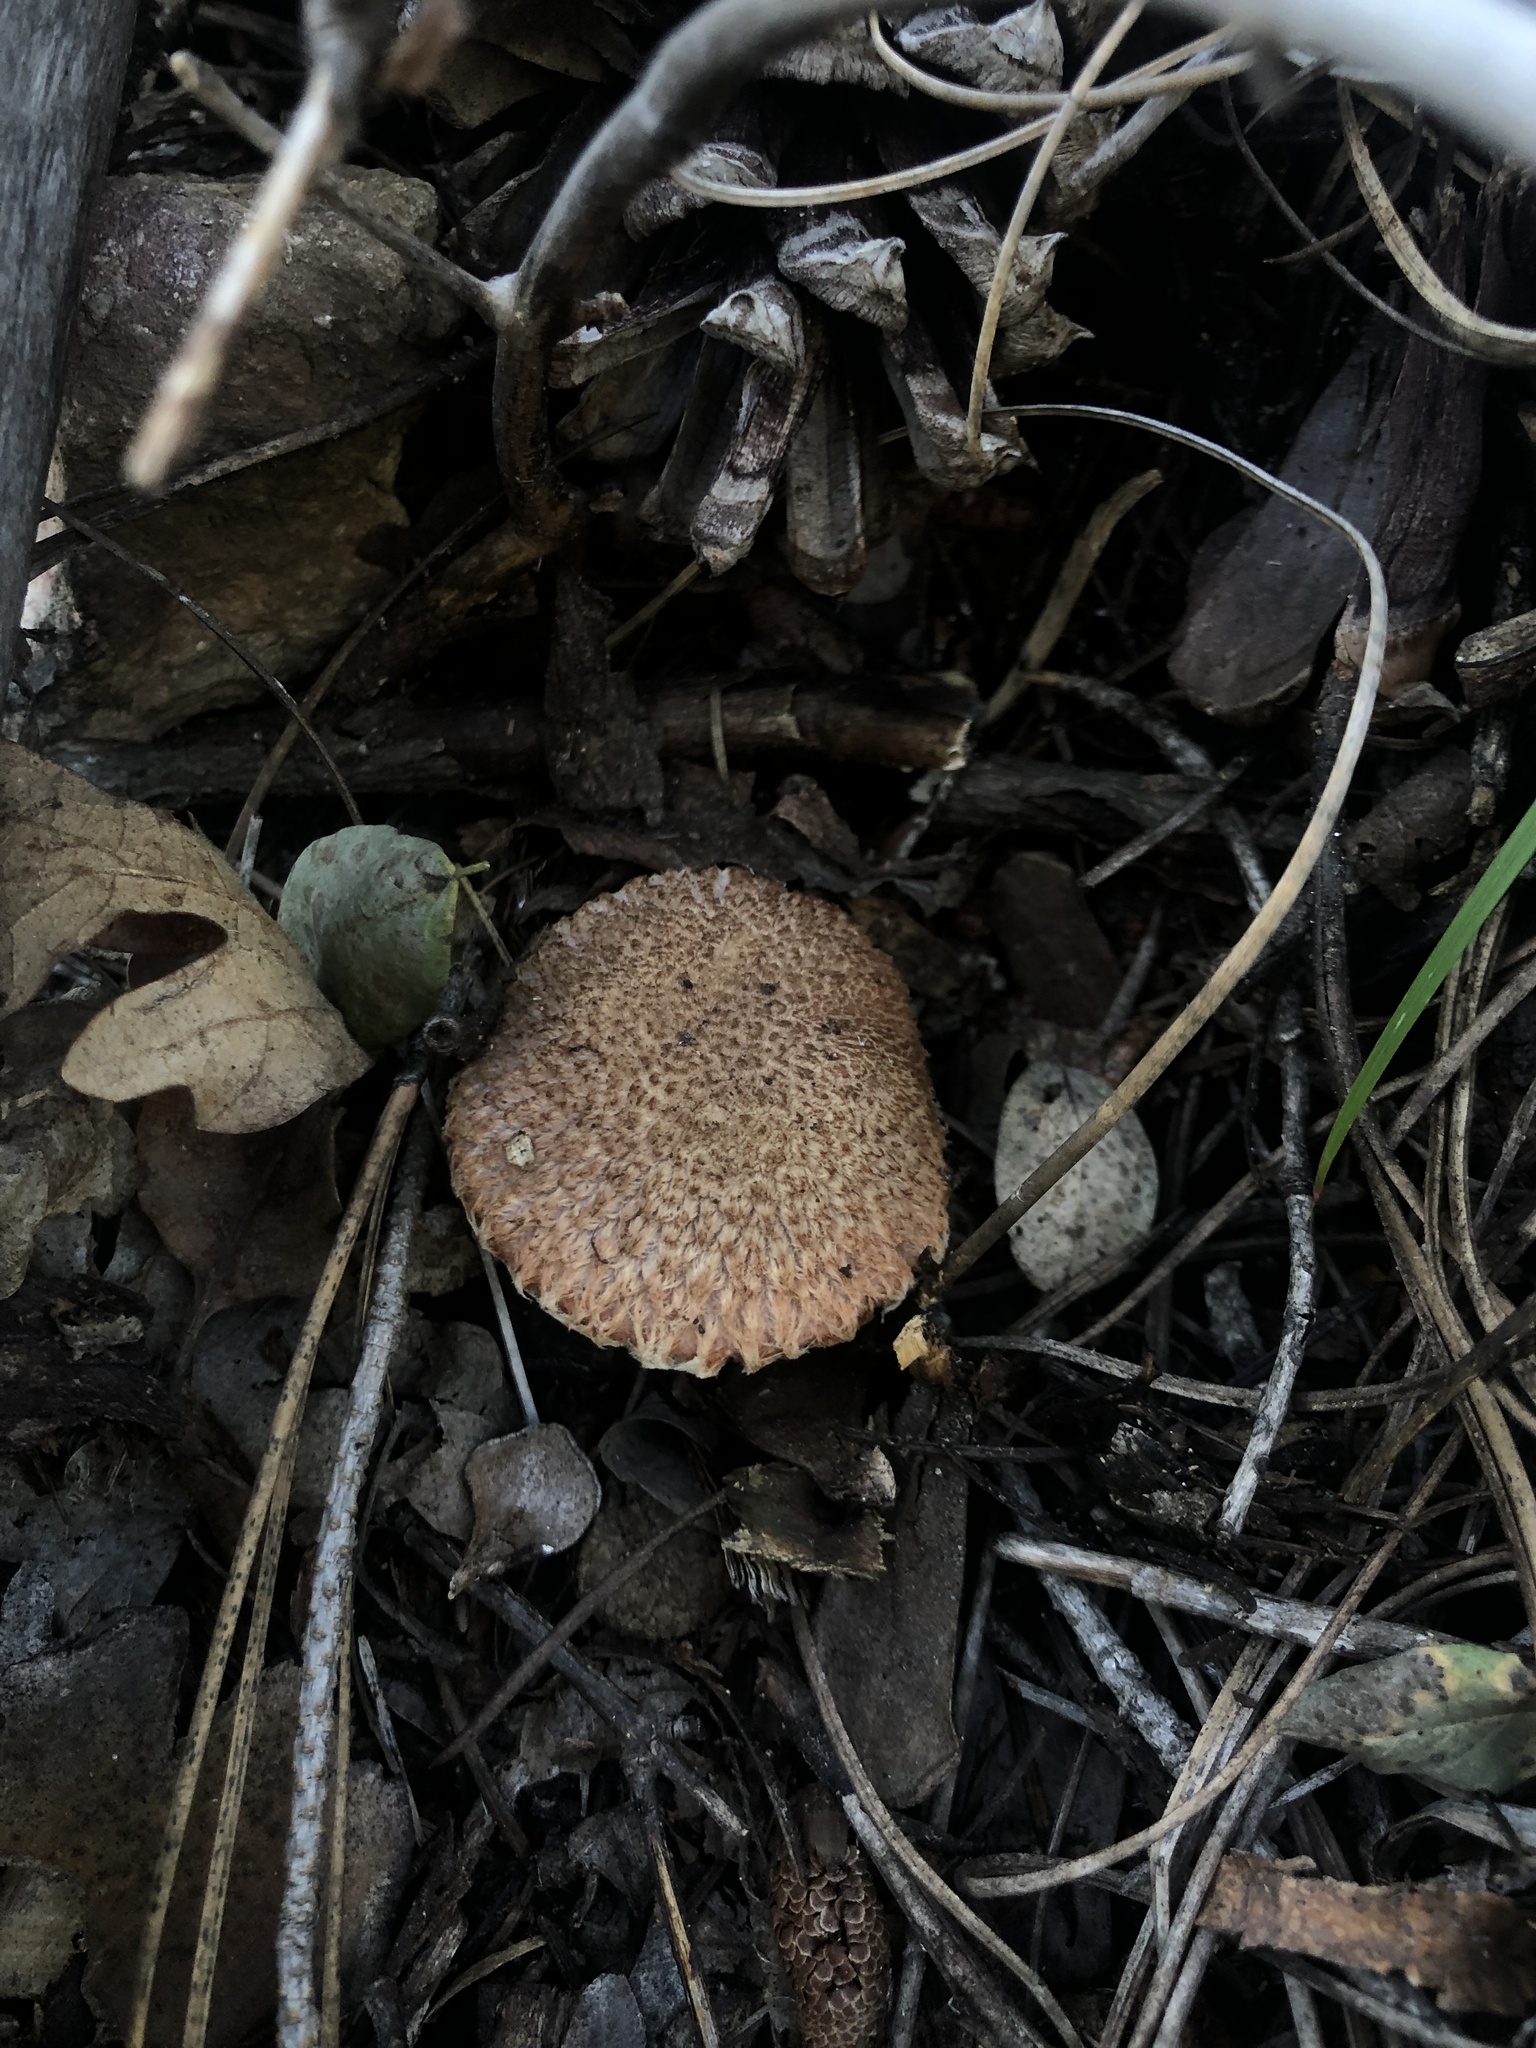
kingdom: Fungi
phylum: Basidiomycota
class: Agaricomycetes
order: Boletales
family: Suillaceae
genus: Suillus
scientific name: Suillus lakei
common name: Western painted suillus
